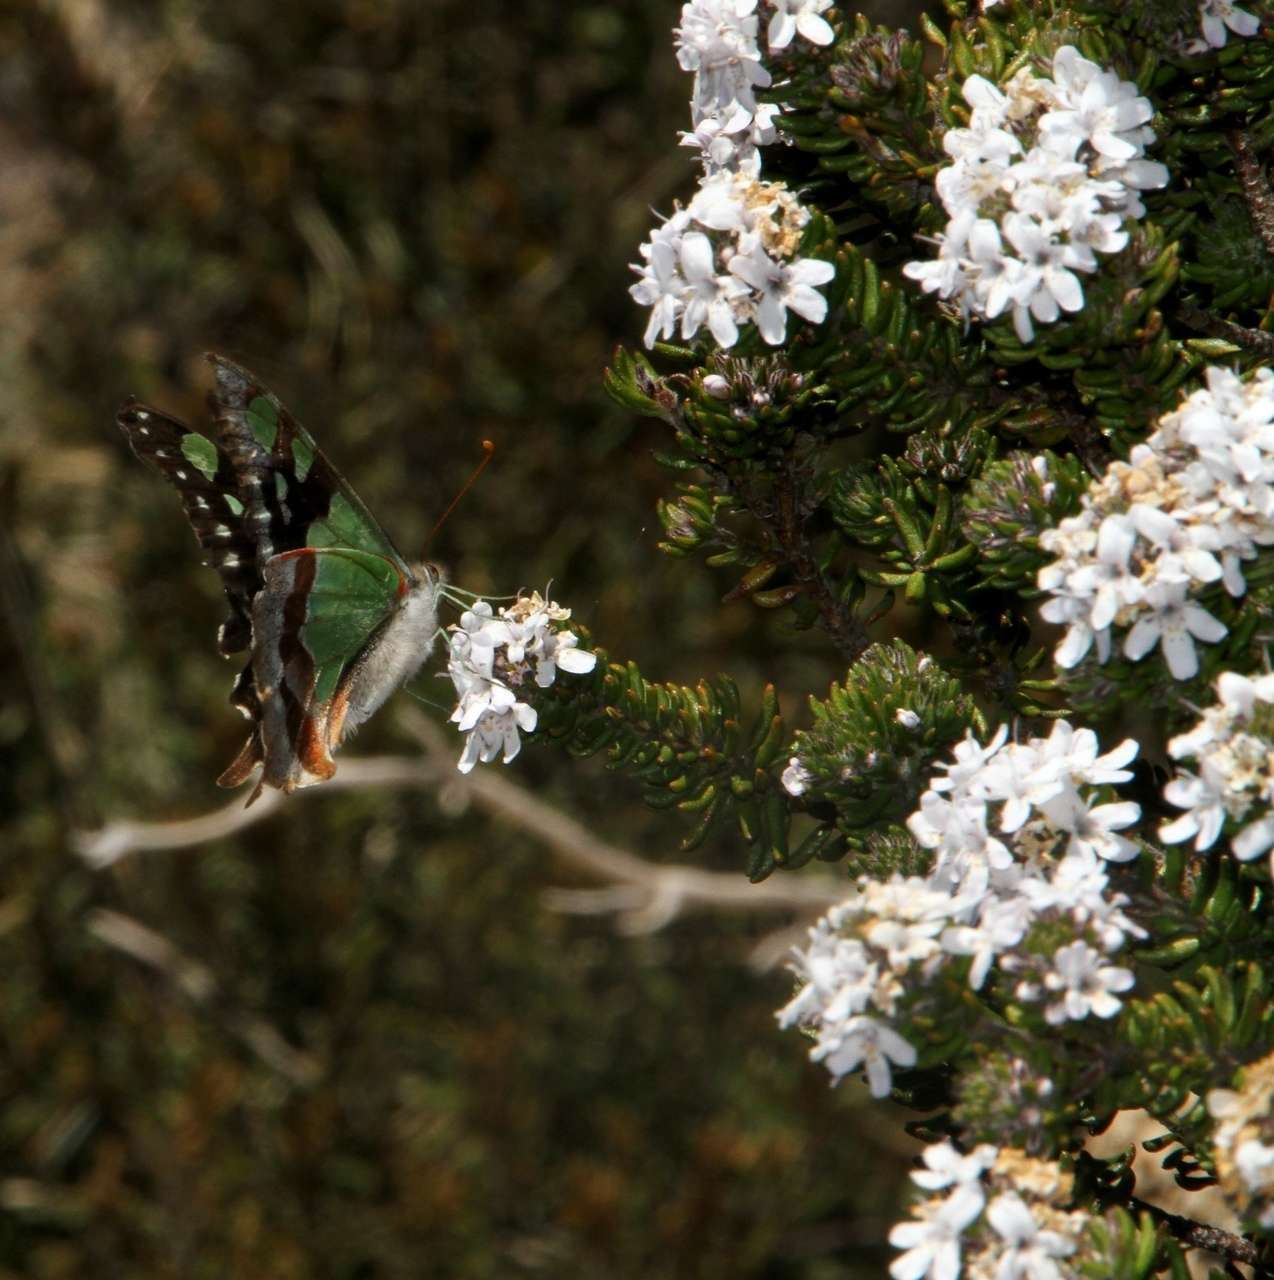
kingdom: Animalia
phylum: Arthropoda
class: Insecta
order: Lepidoptera
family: Papilionidae
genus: Graphium
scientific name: Graphium macleayanus
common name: Macleay's swallowtail
